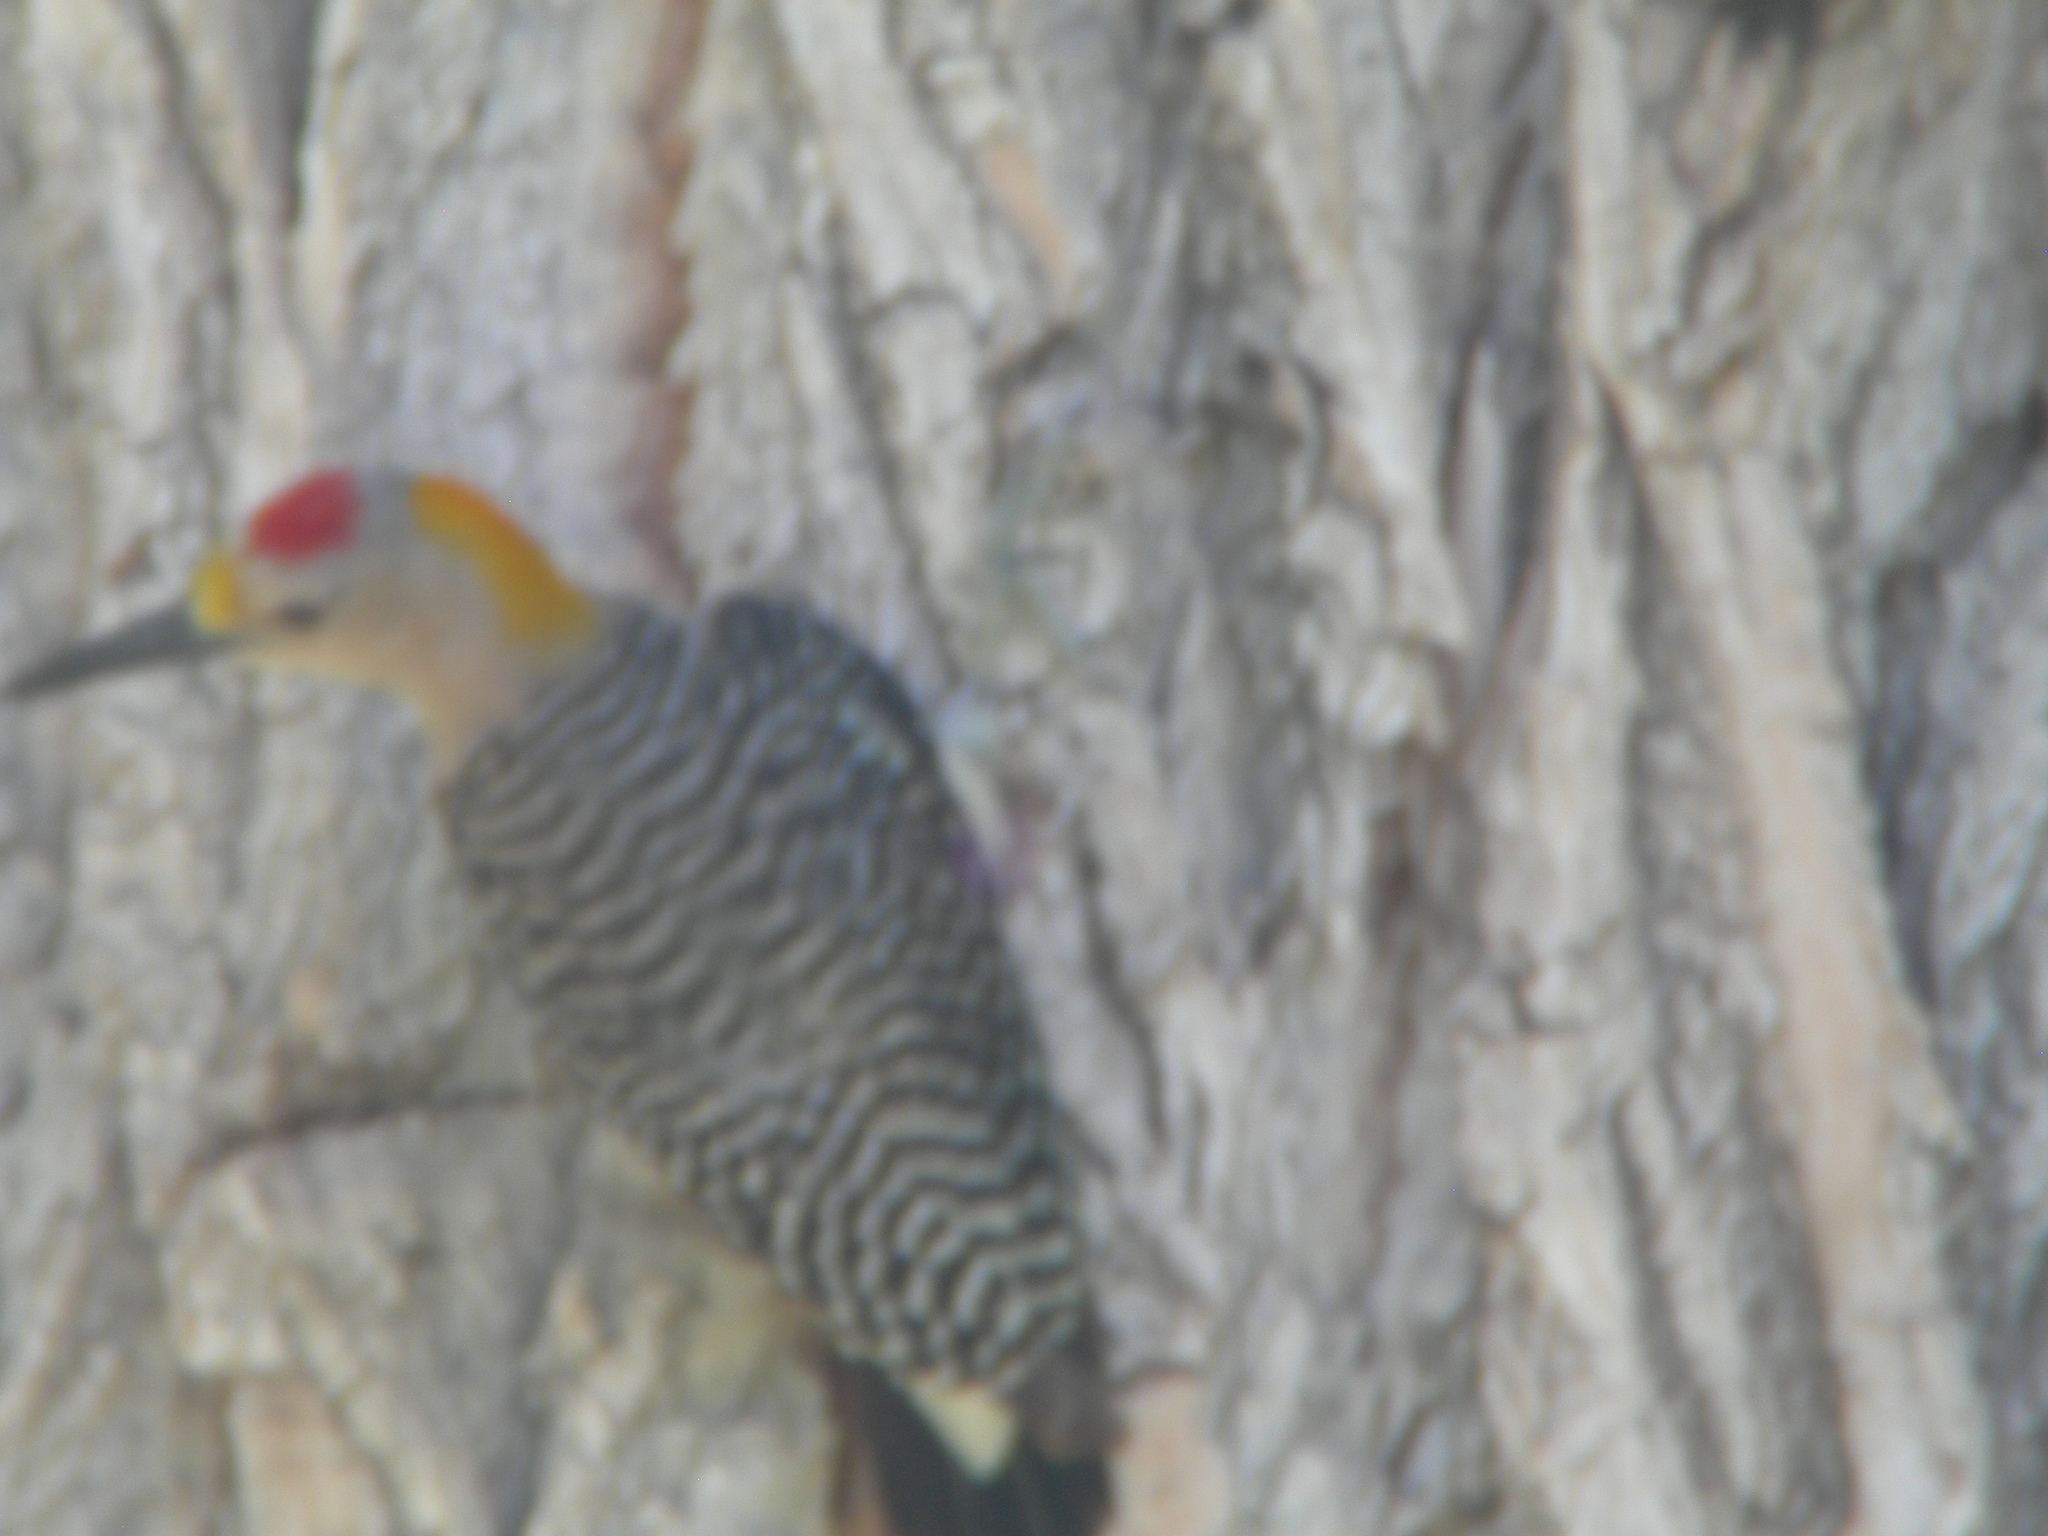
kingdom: Animalia
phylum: Chordata
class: Aves
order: Piciformes
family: Picidae
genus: Melanerpes
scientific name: Melanerpes aurifrons
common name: Golden-fronted woodpecker
